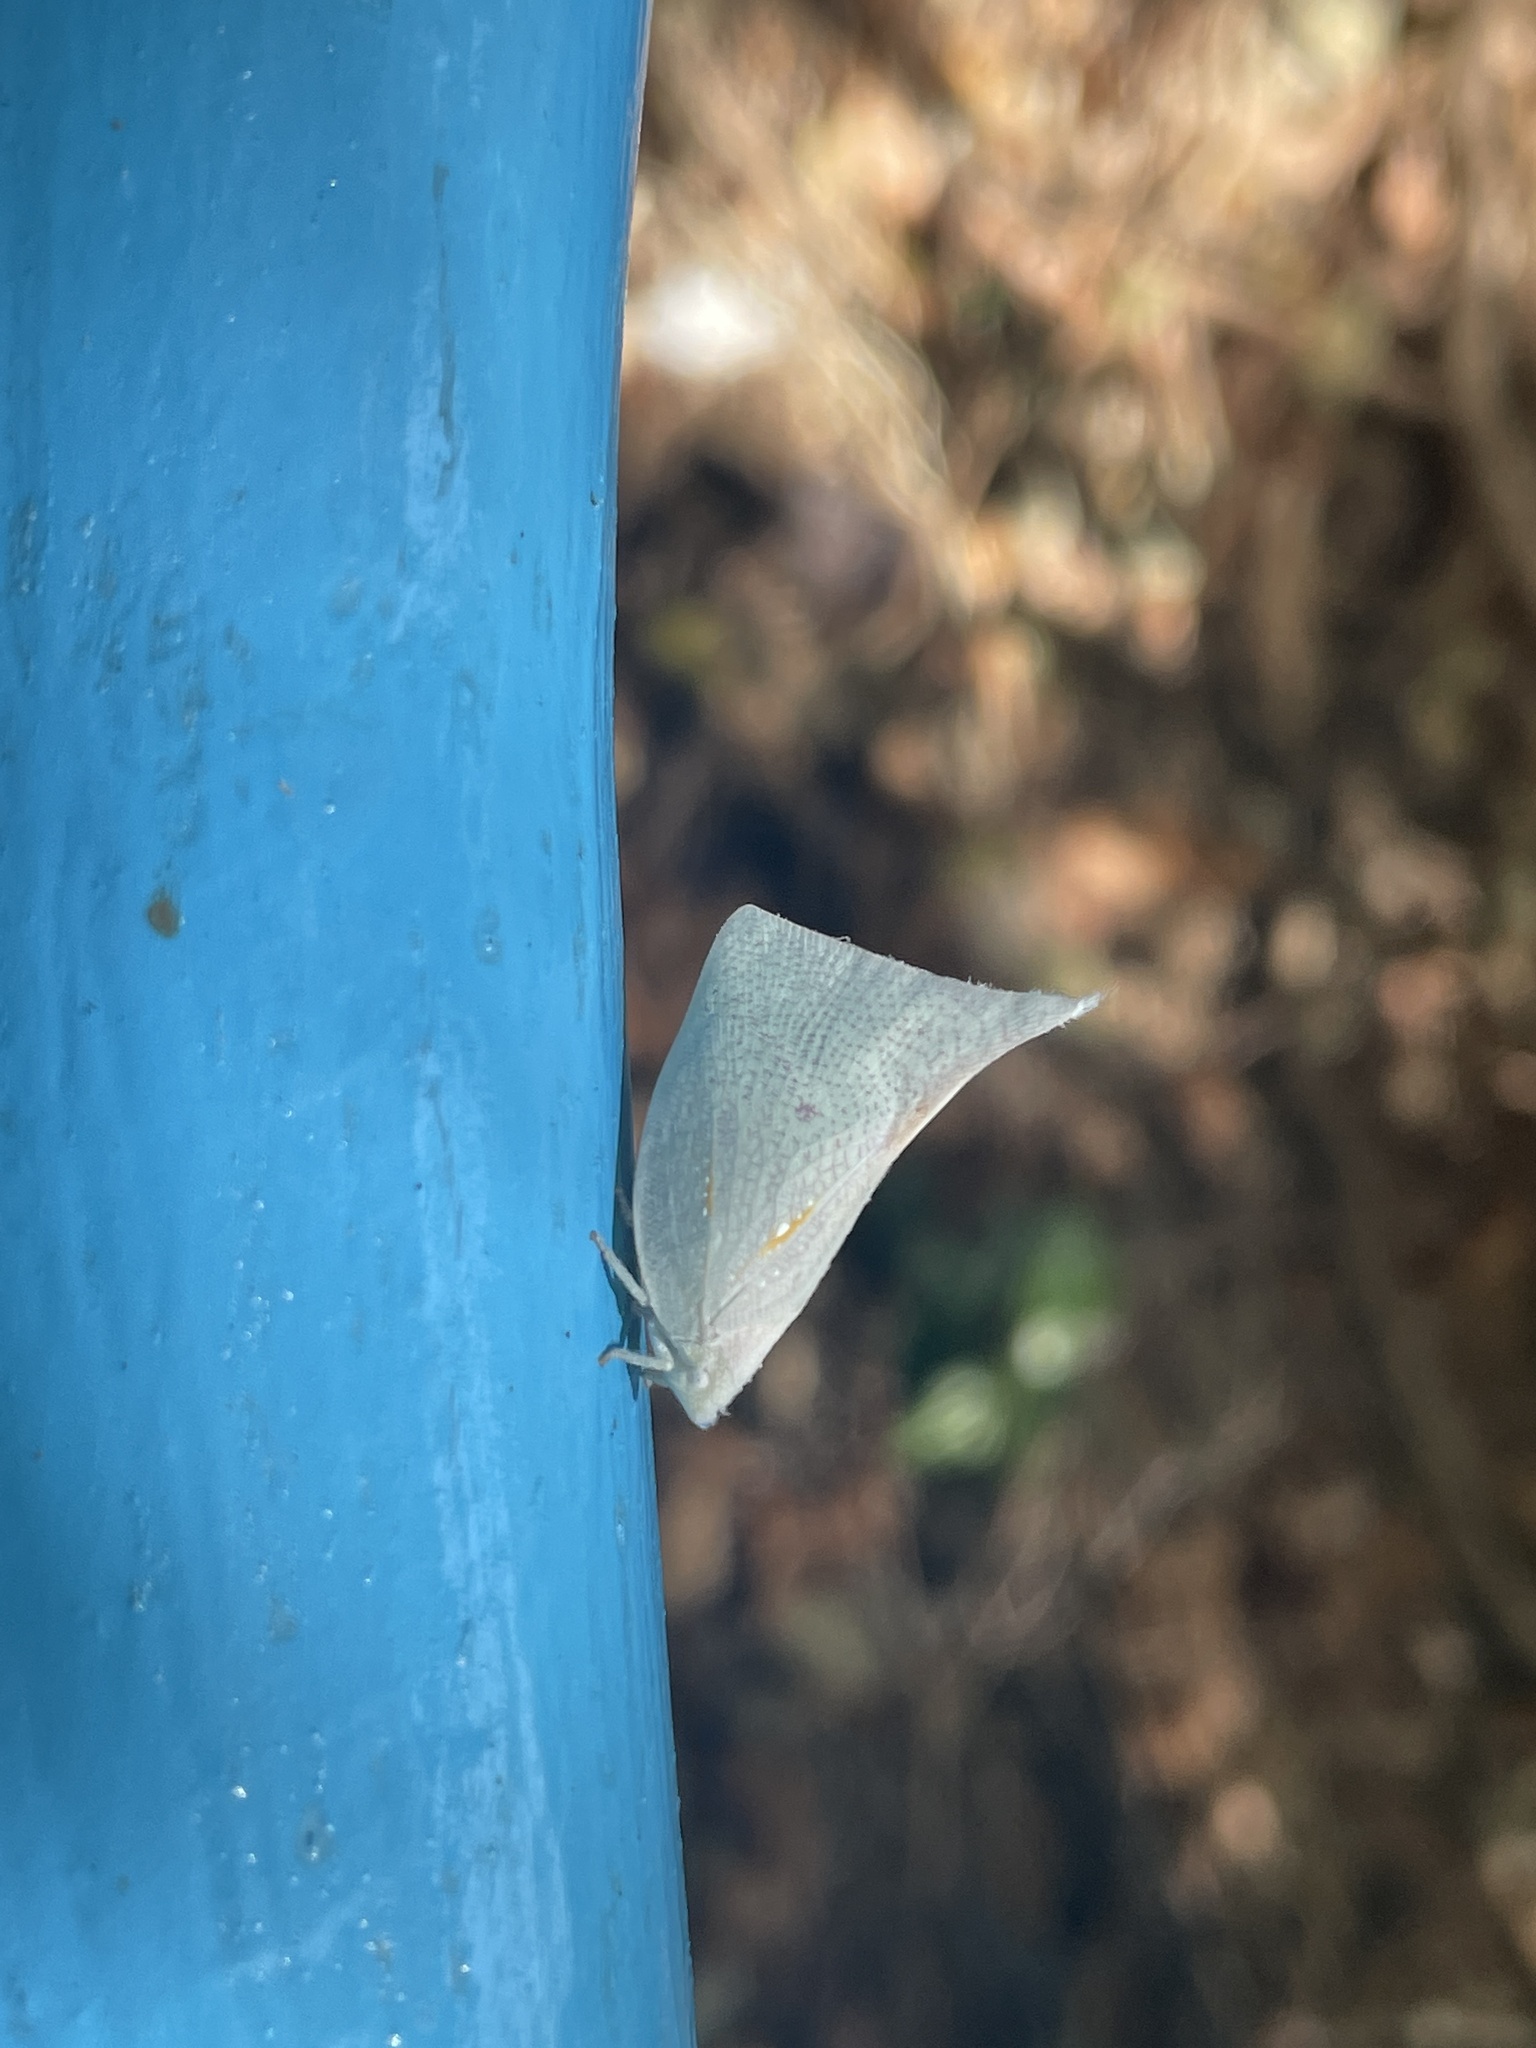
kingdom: Animalia
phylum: Arthropoda
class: Insecta
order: Hemiptera
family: Flatidae
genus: Lawana
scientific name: Lawana imitata
